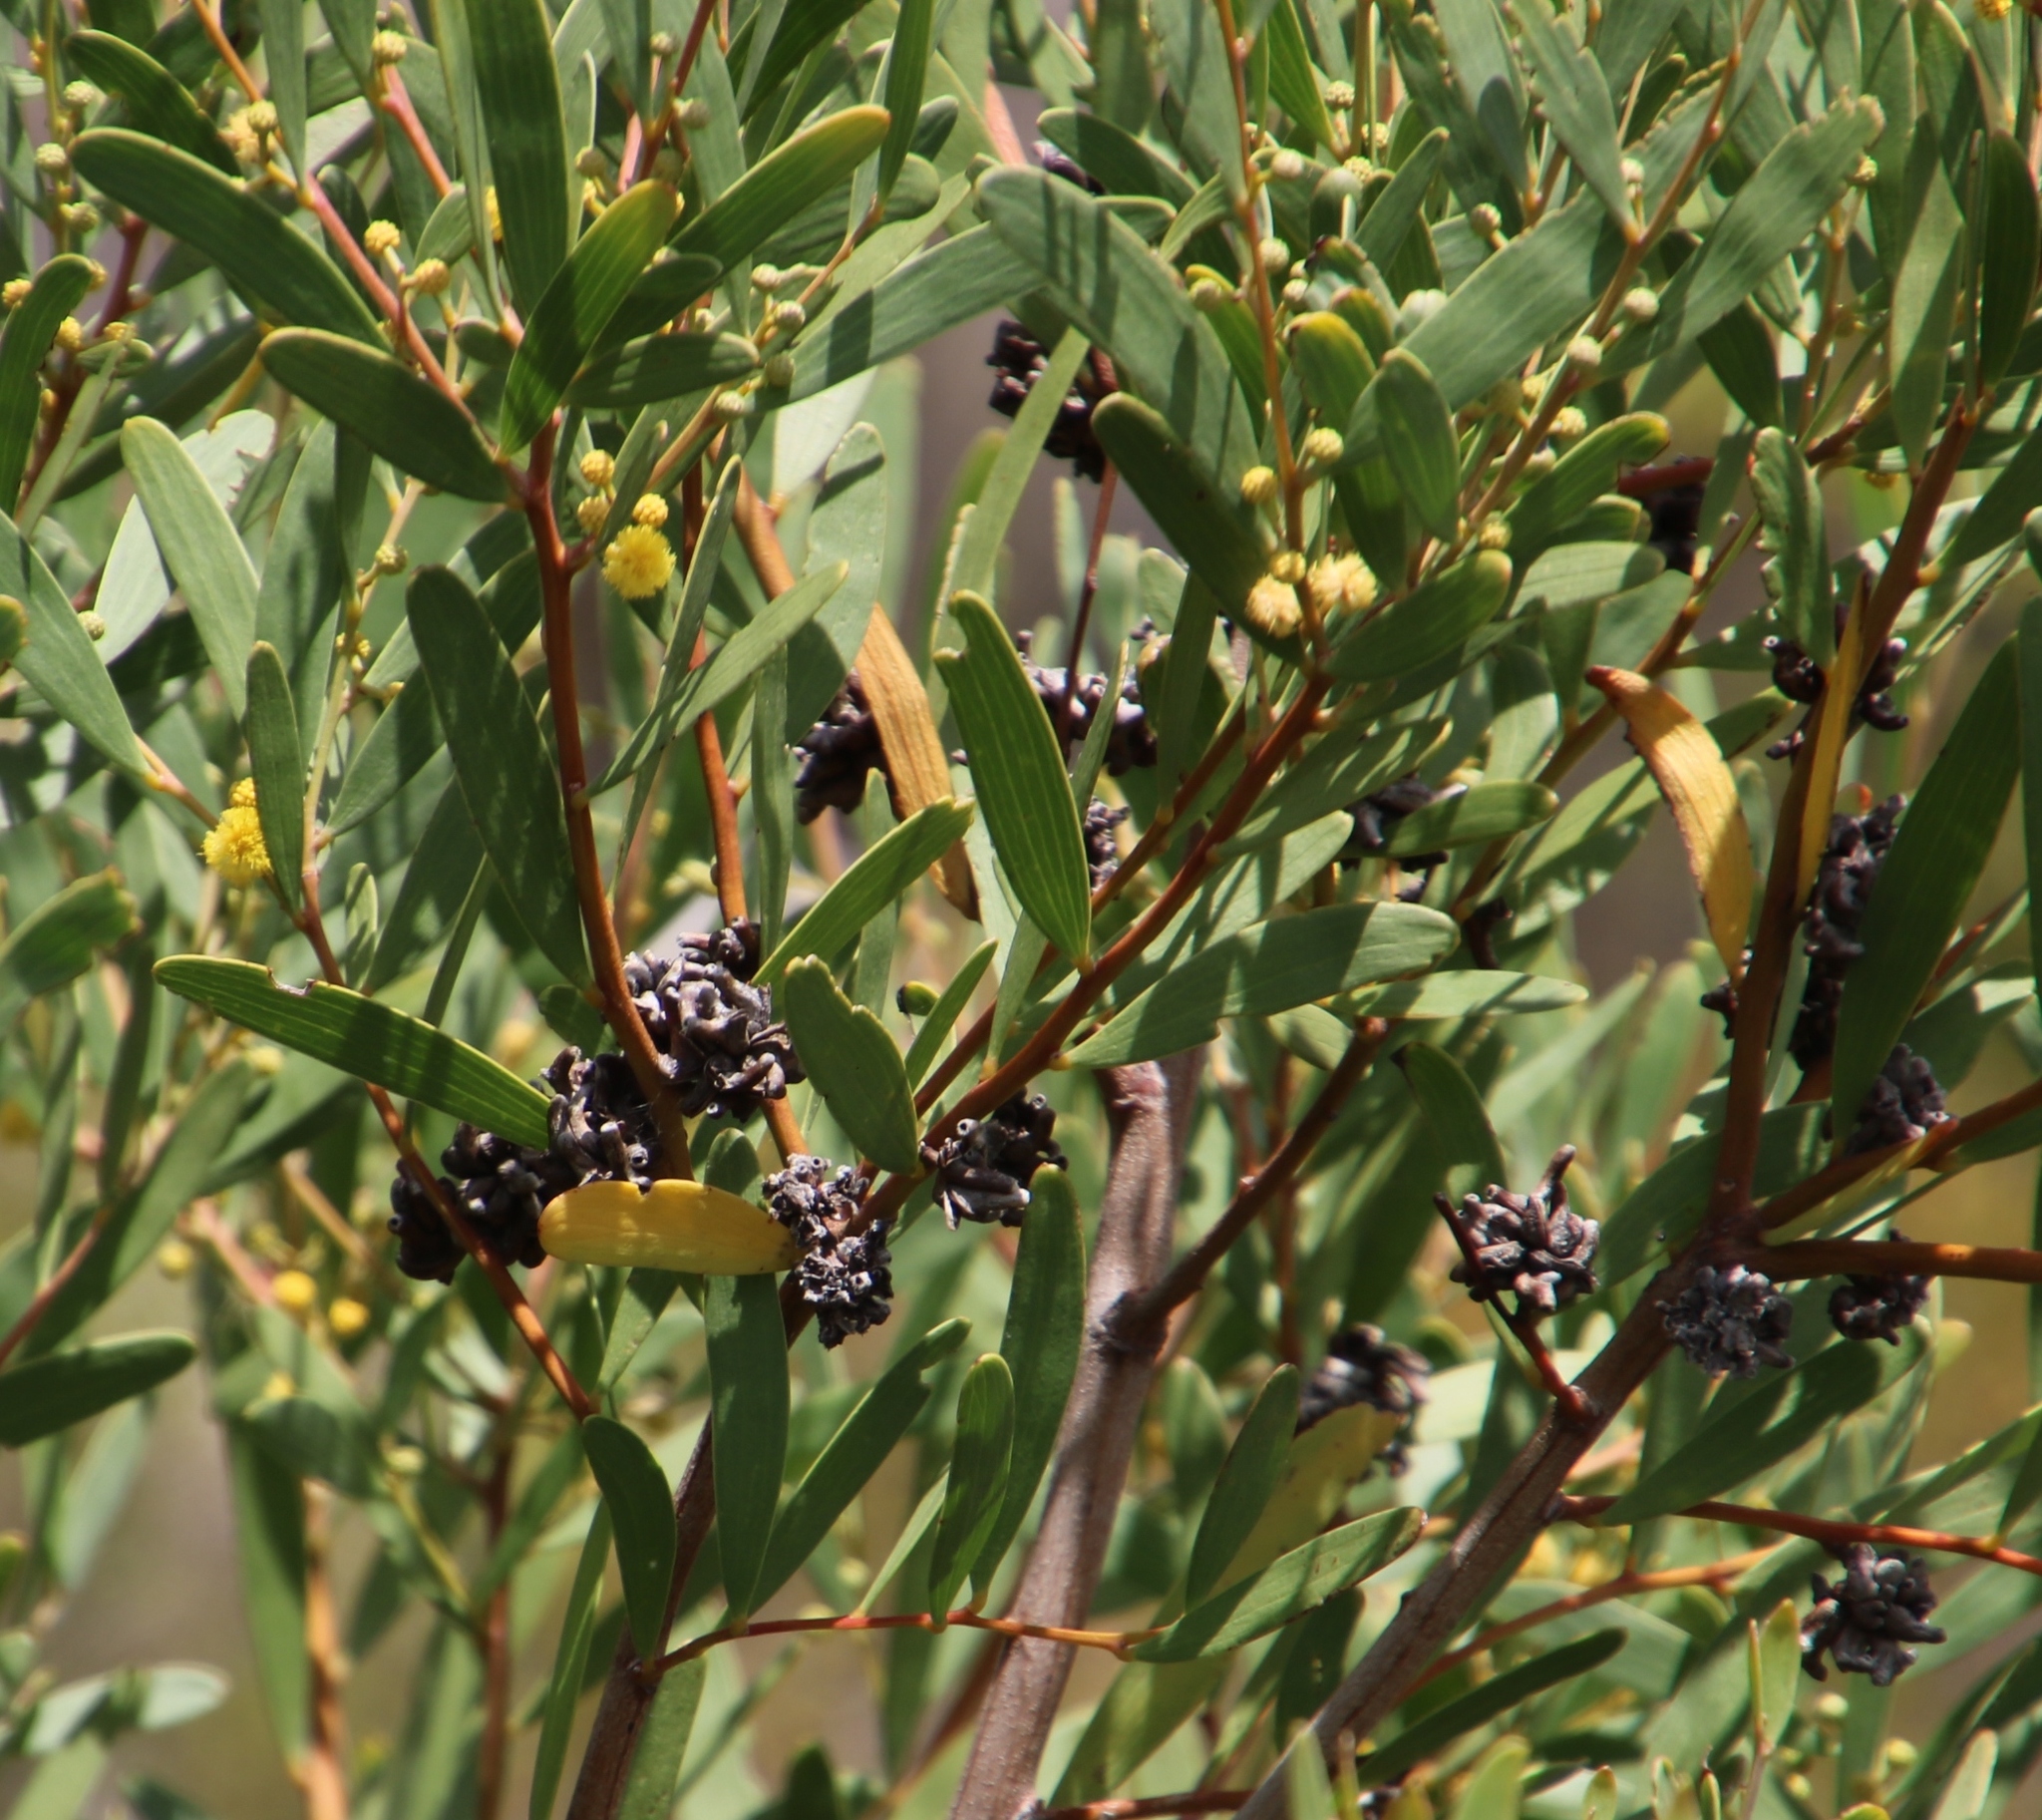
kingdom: Plantae
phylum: Tracheophyta
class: Magnoliopsida
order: Fabales
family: Fabaceae
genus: Acacia
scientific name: Acacia cyclops
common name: Coastal wattle
